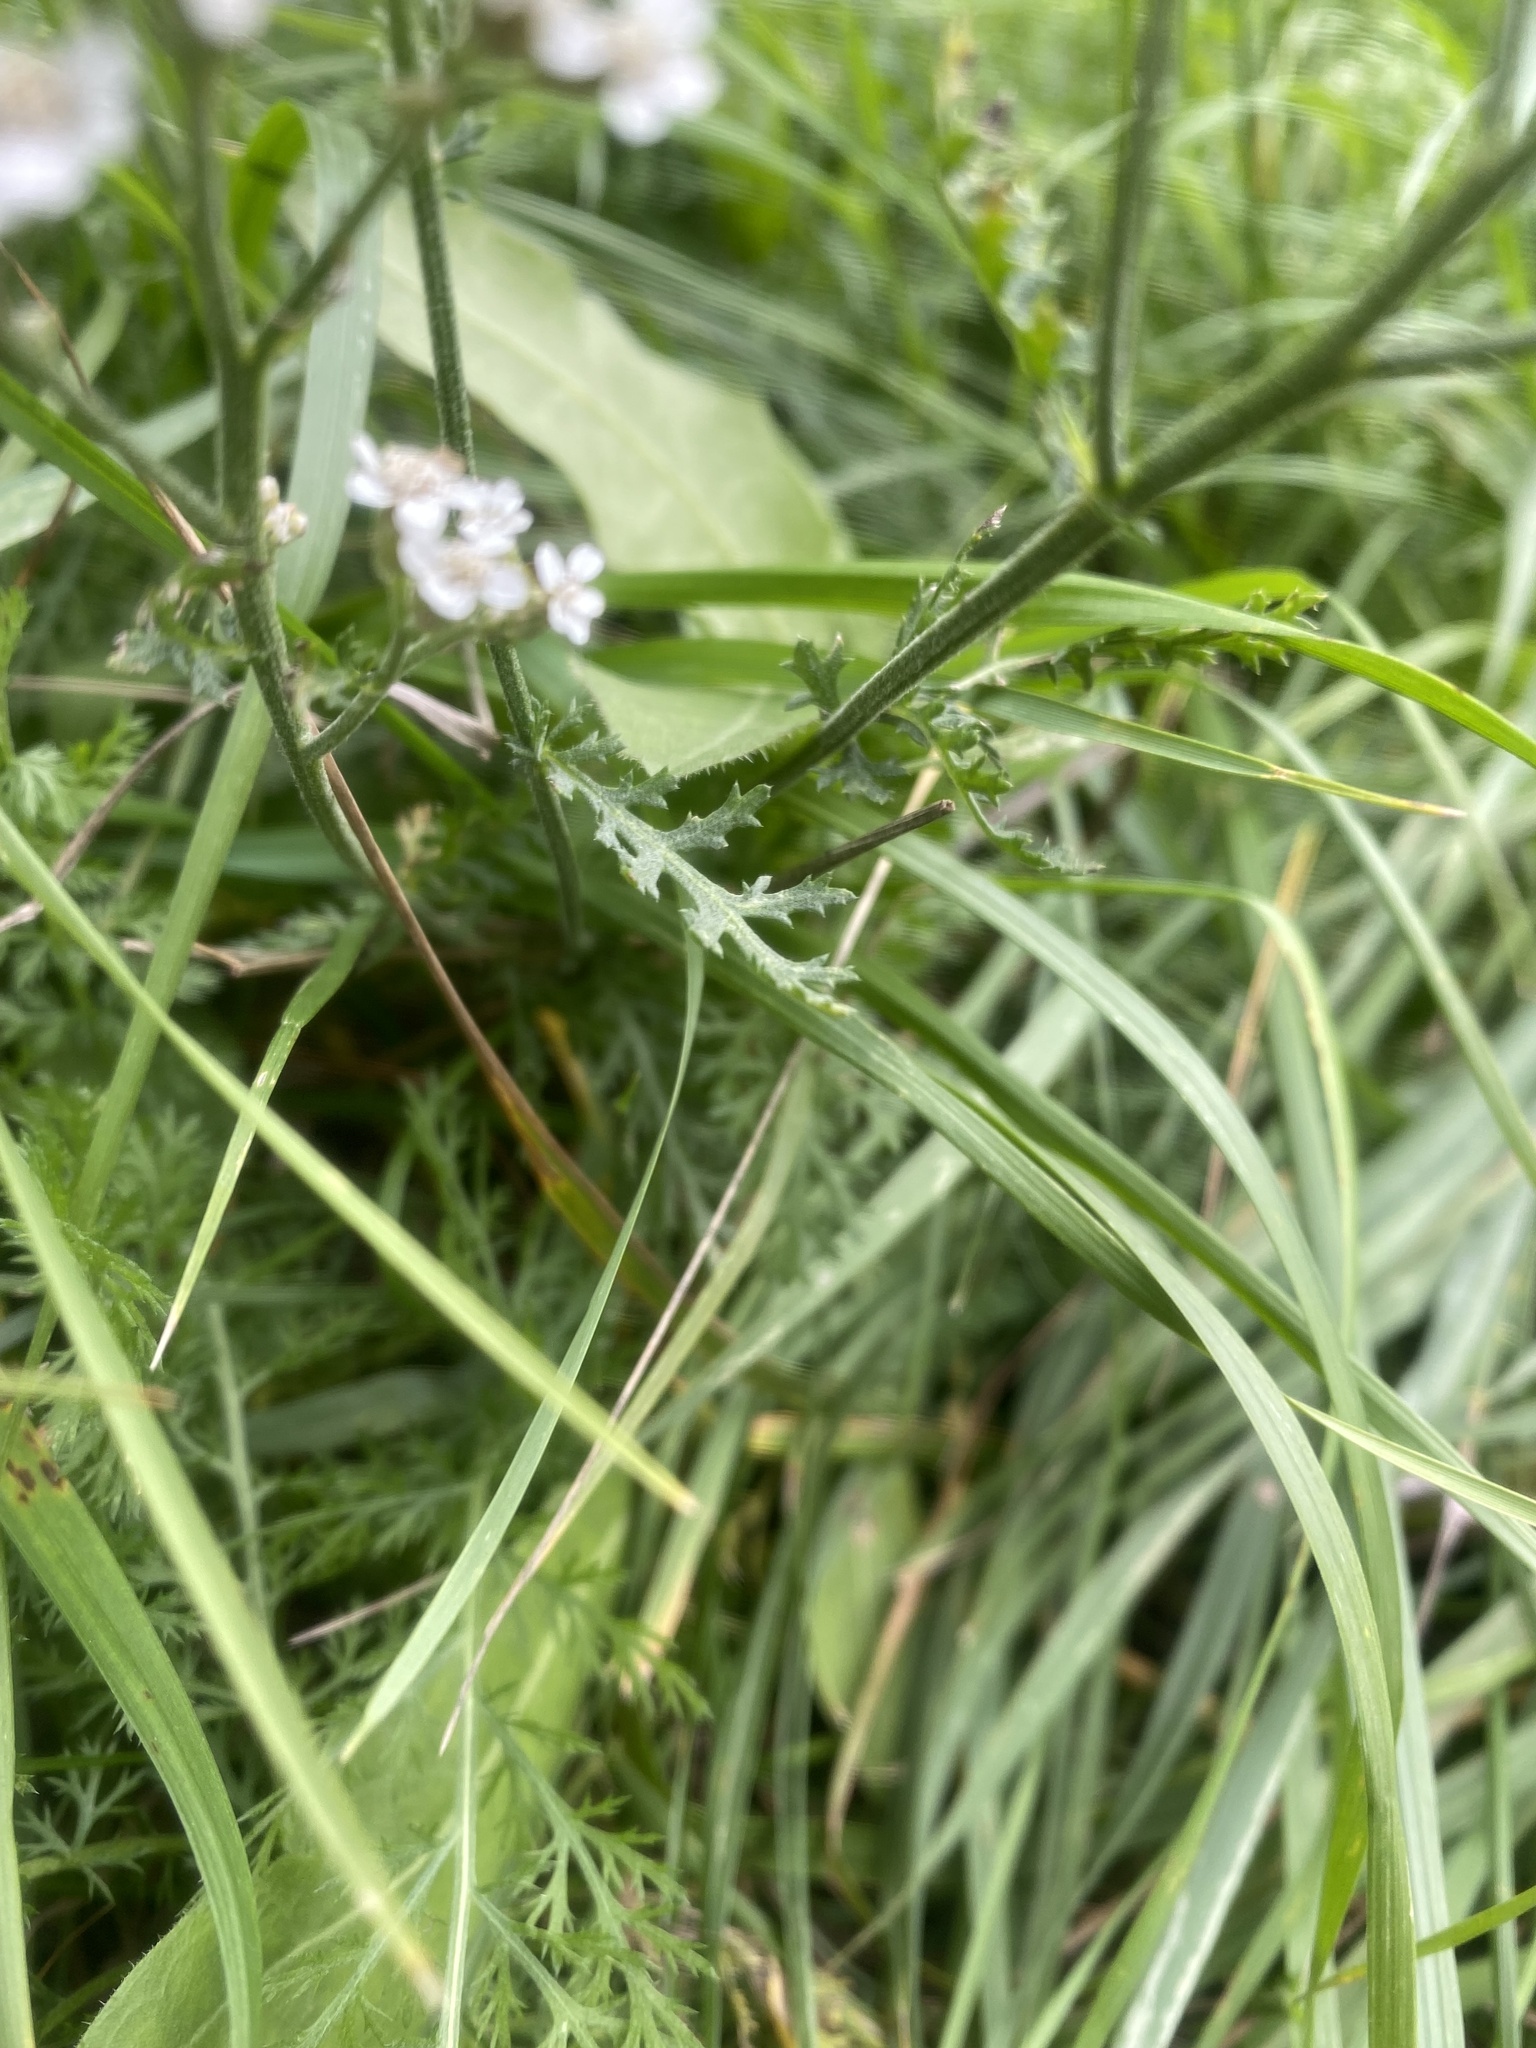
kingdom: Plantae
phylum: Tracheophyta
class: Magnoliopsida
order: Asterales
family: Asteraceae
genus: Achillea
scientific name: Achillea millefolium
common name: Yarrow
